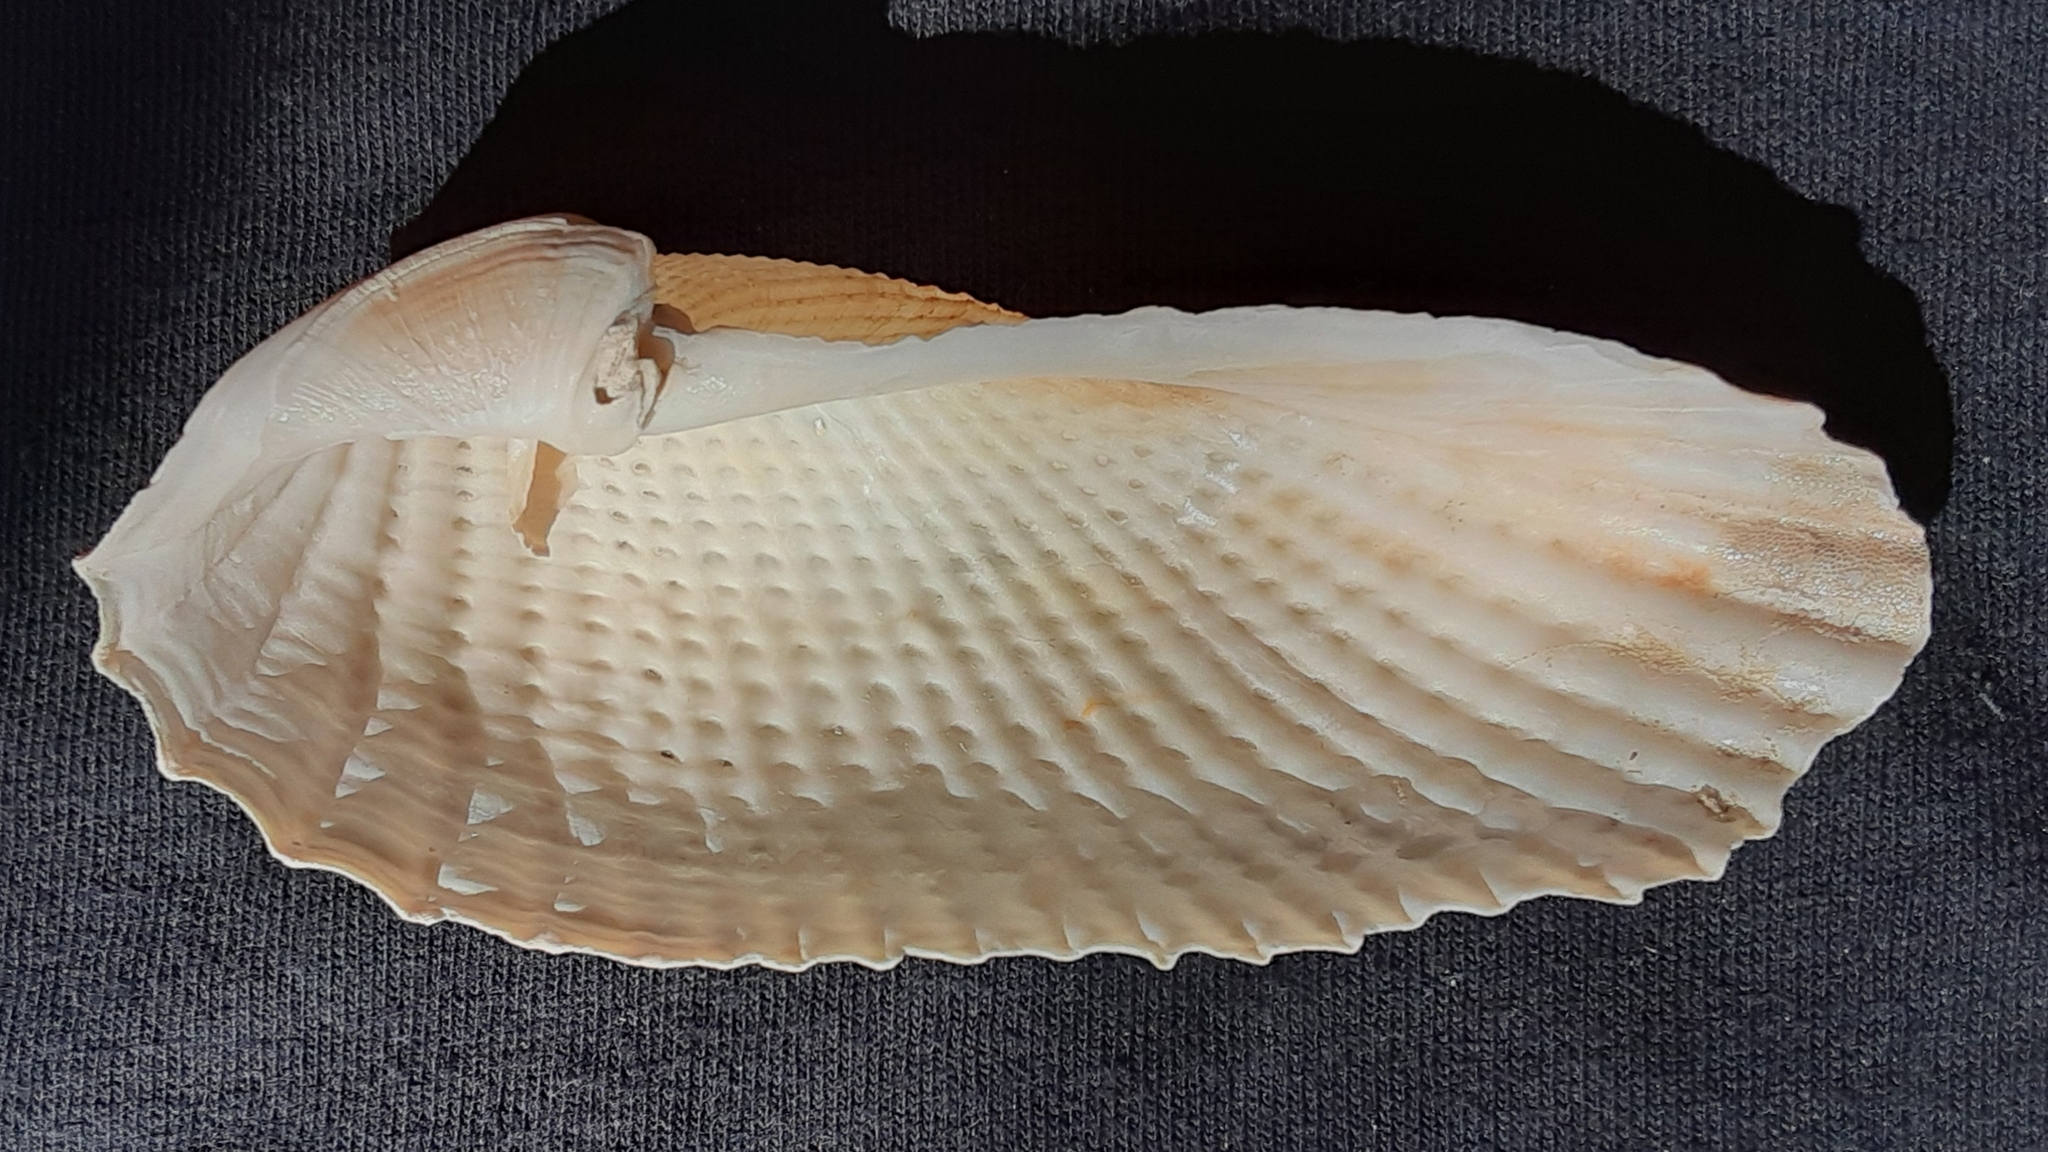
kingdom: Animalia
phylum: Mollusca
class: Bivalvia
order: Myida
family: Pholadidae
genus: Cyrtopleura
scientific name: Cyrtopleura costata
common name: Angel wing
